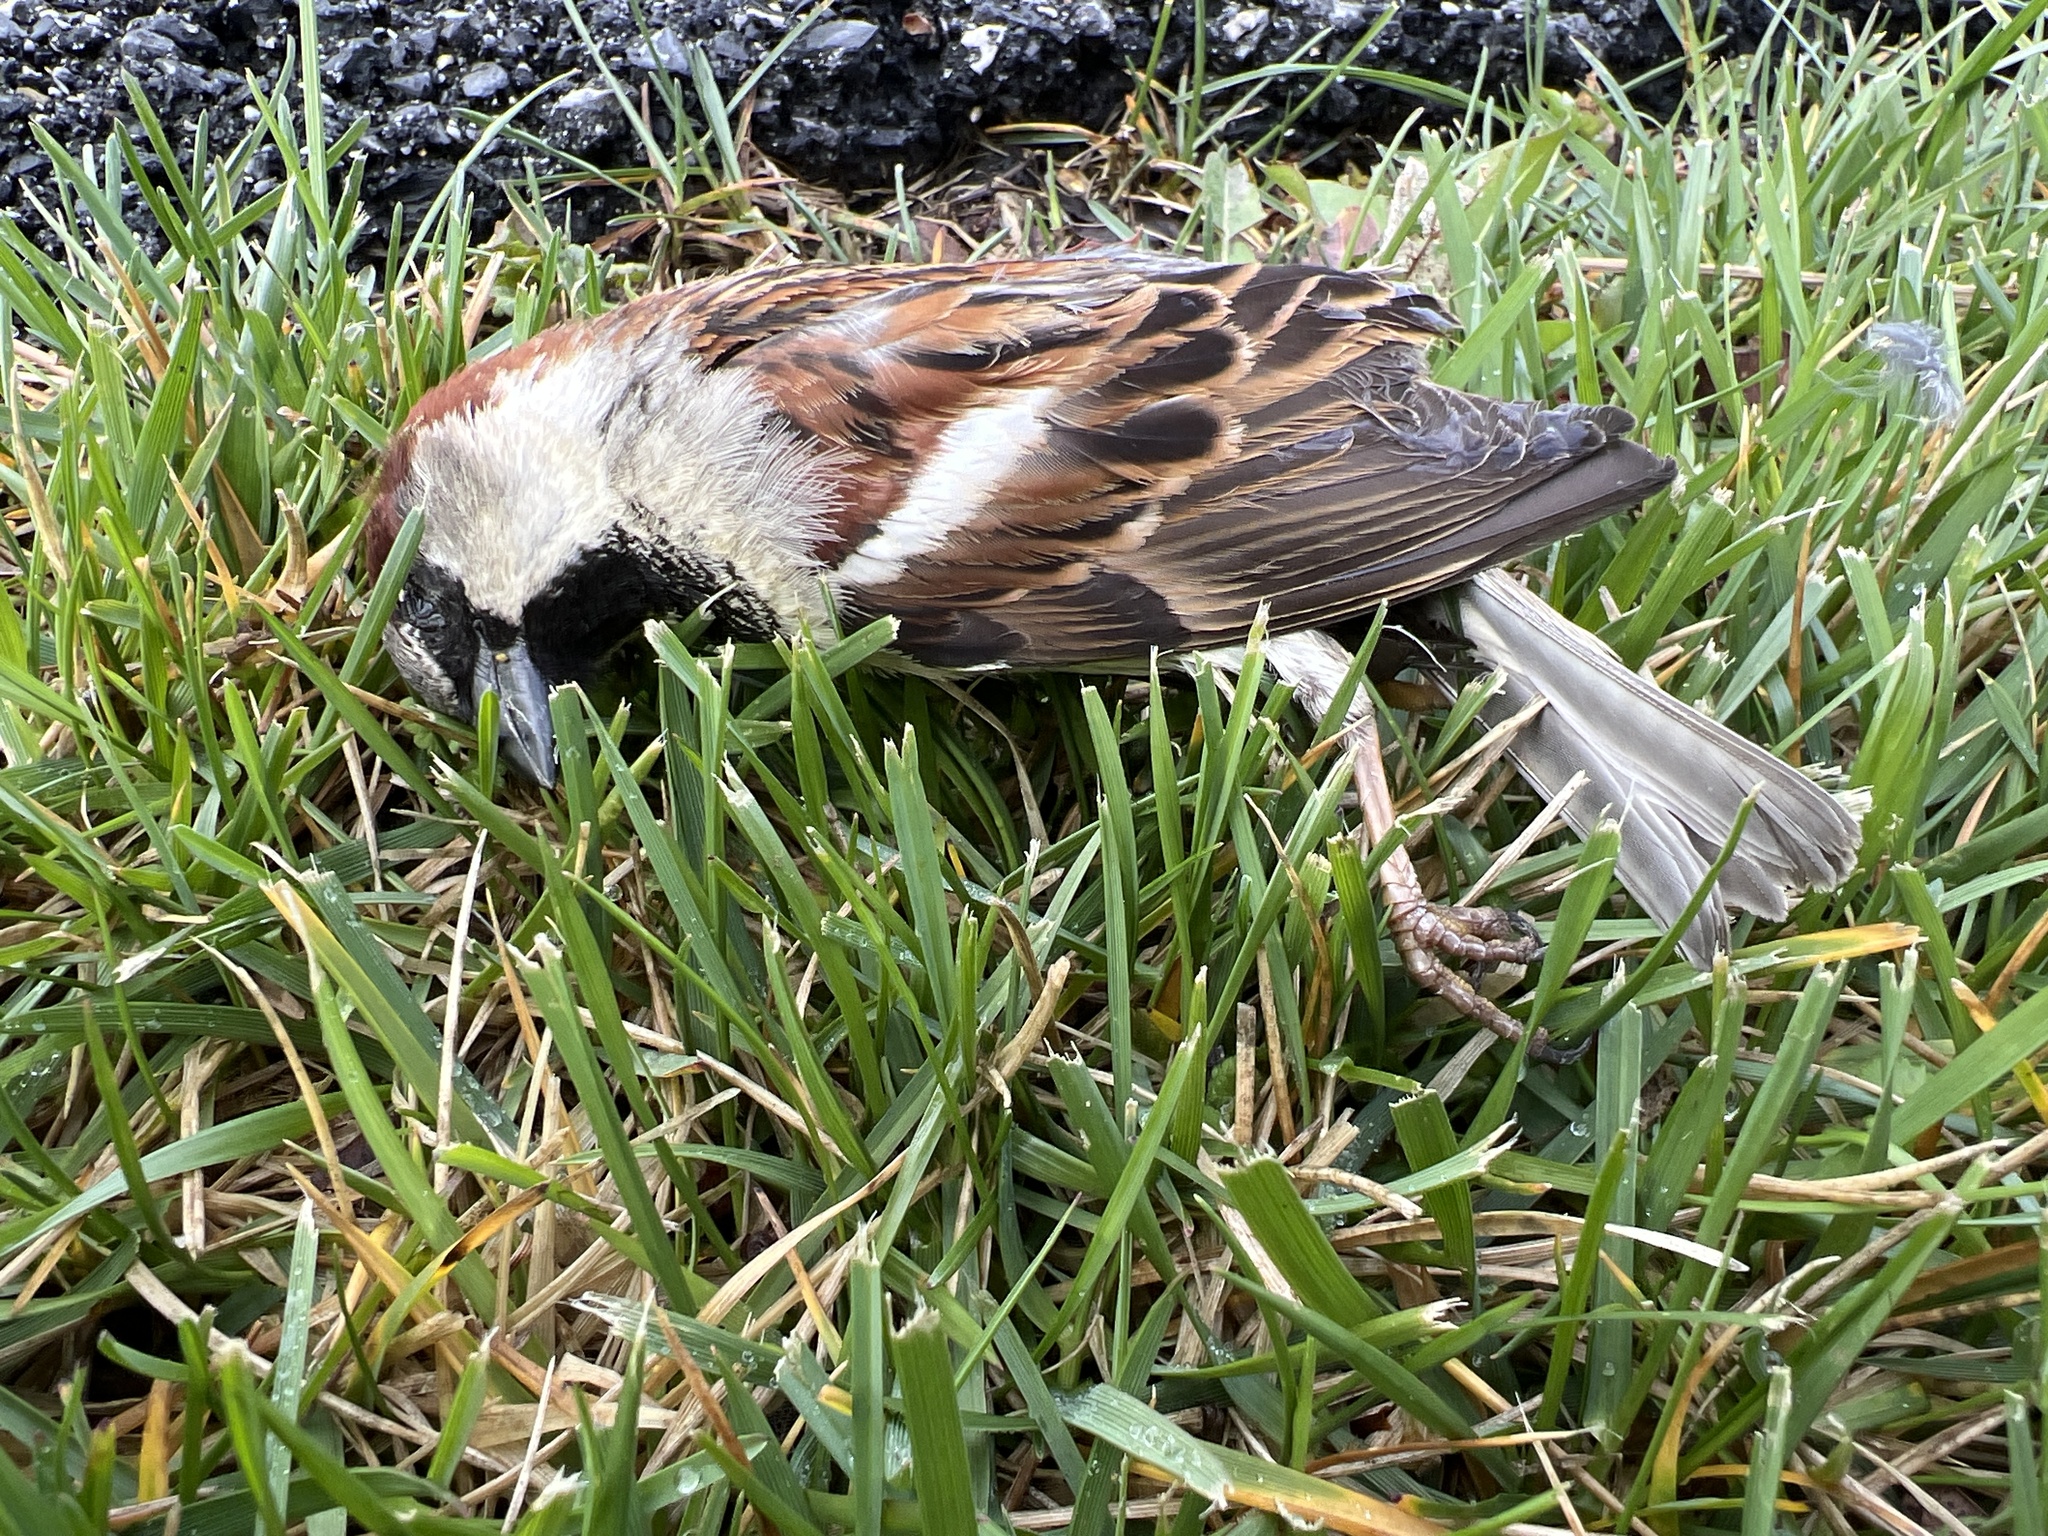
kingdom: Animalia
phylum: Chordata
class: Aves
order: Passeriformes
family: Passeridae
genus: Passer
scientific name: Passer domesticus
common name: House sparrow
